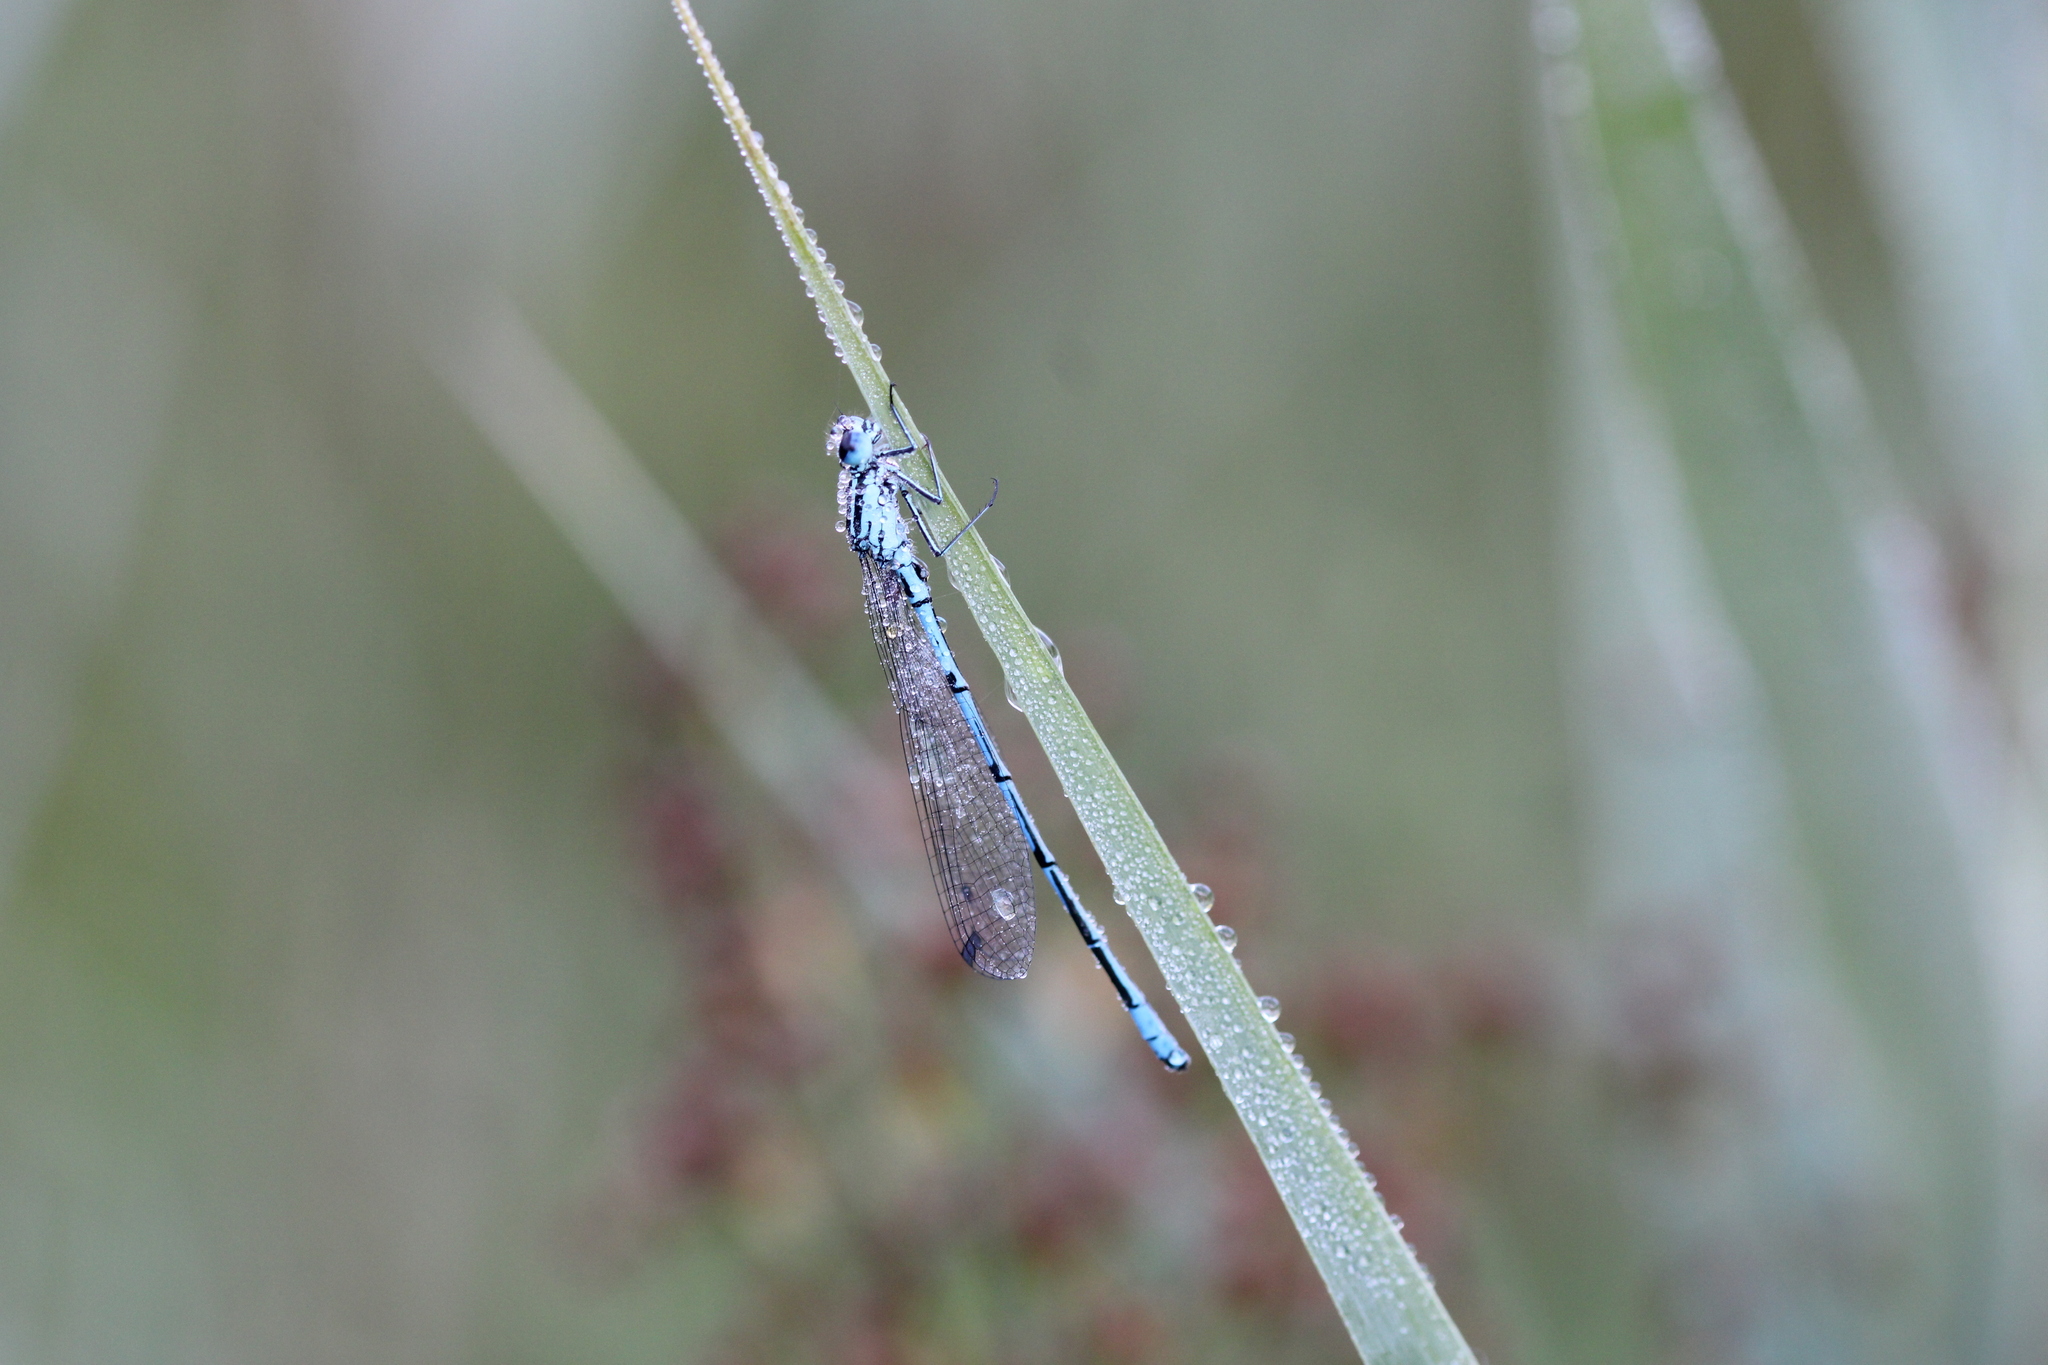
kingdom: Animalia
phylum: Arthropoda
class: Insecta
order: Odonata
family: Coenagrionidae
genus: Coenagrion
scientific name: Coenagrion puella
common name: Azure damselfly
